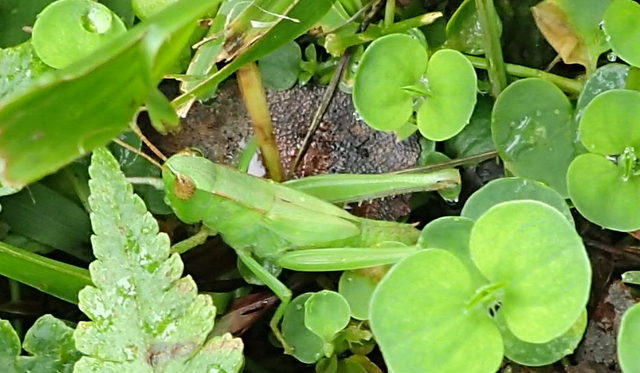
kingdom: Animalia
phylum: Arthropoda
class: Insecta
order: Orthoptera
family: Acrididae
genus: Dichromorpha
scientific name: Dichromorpha viridis
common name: Short-winged green grasshopper
